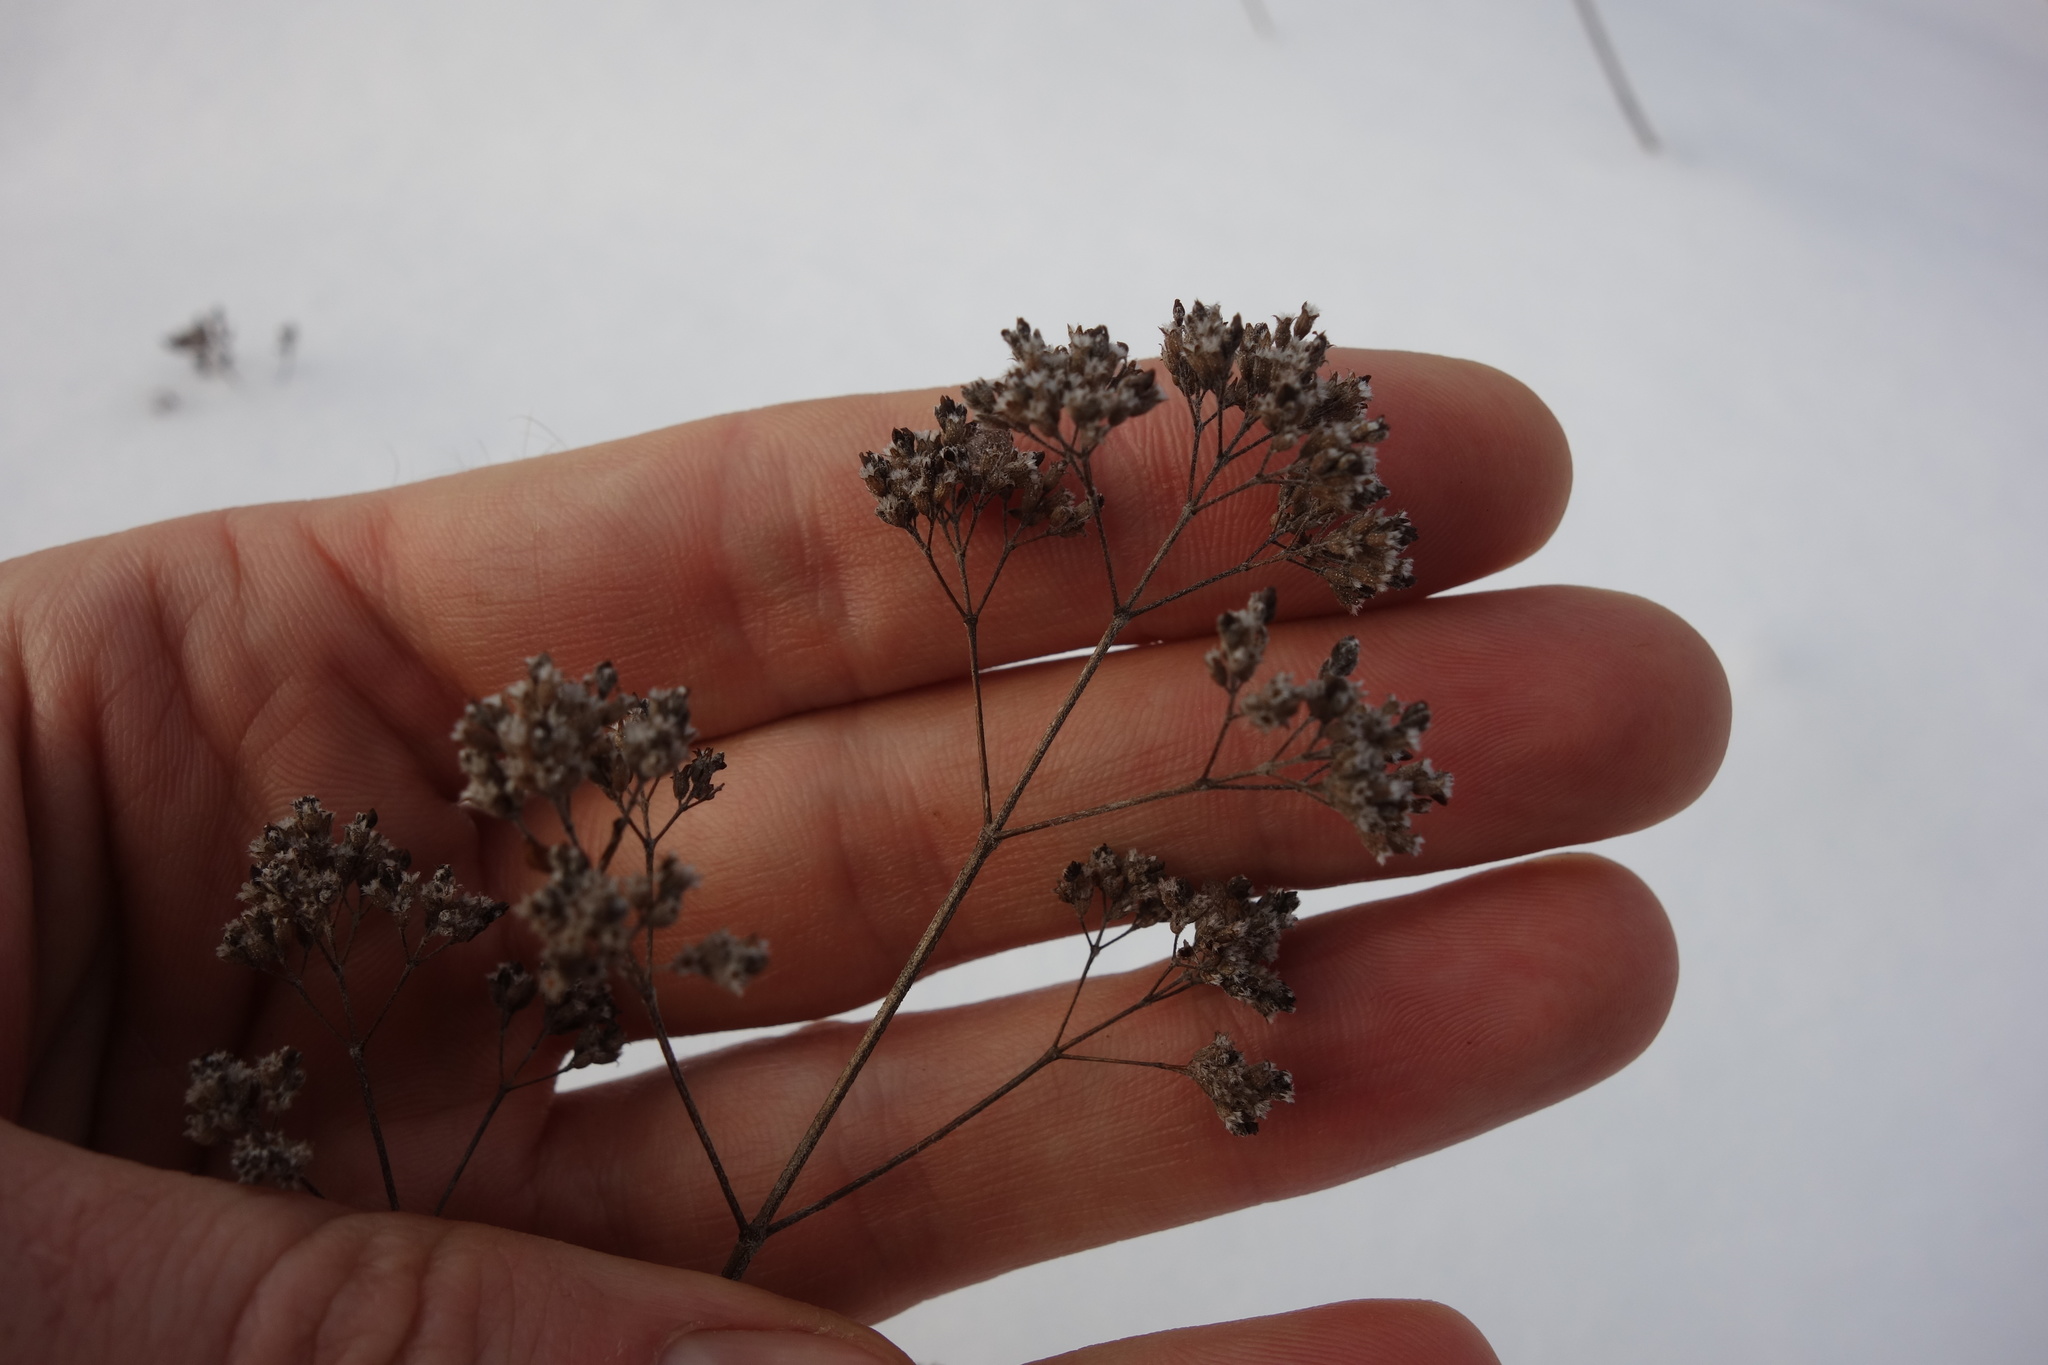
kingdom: Plantae
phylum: Tracheophyta
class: Magnoliopsida
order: Lamiales
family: Lamiaceae
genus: Origanum
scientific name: Origanum vulgare
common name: Wild marjoram
